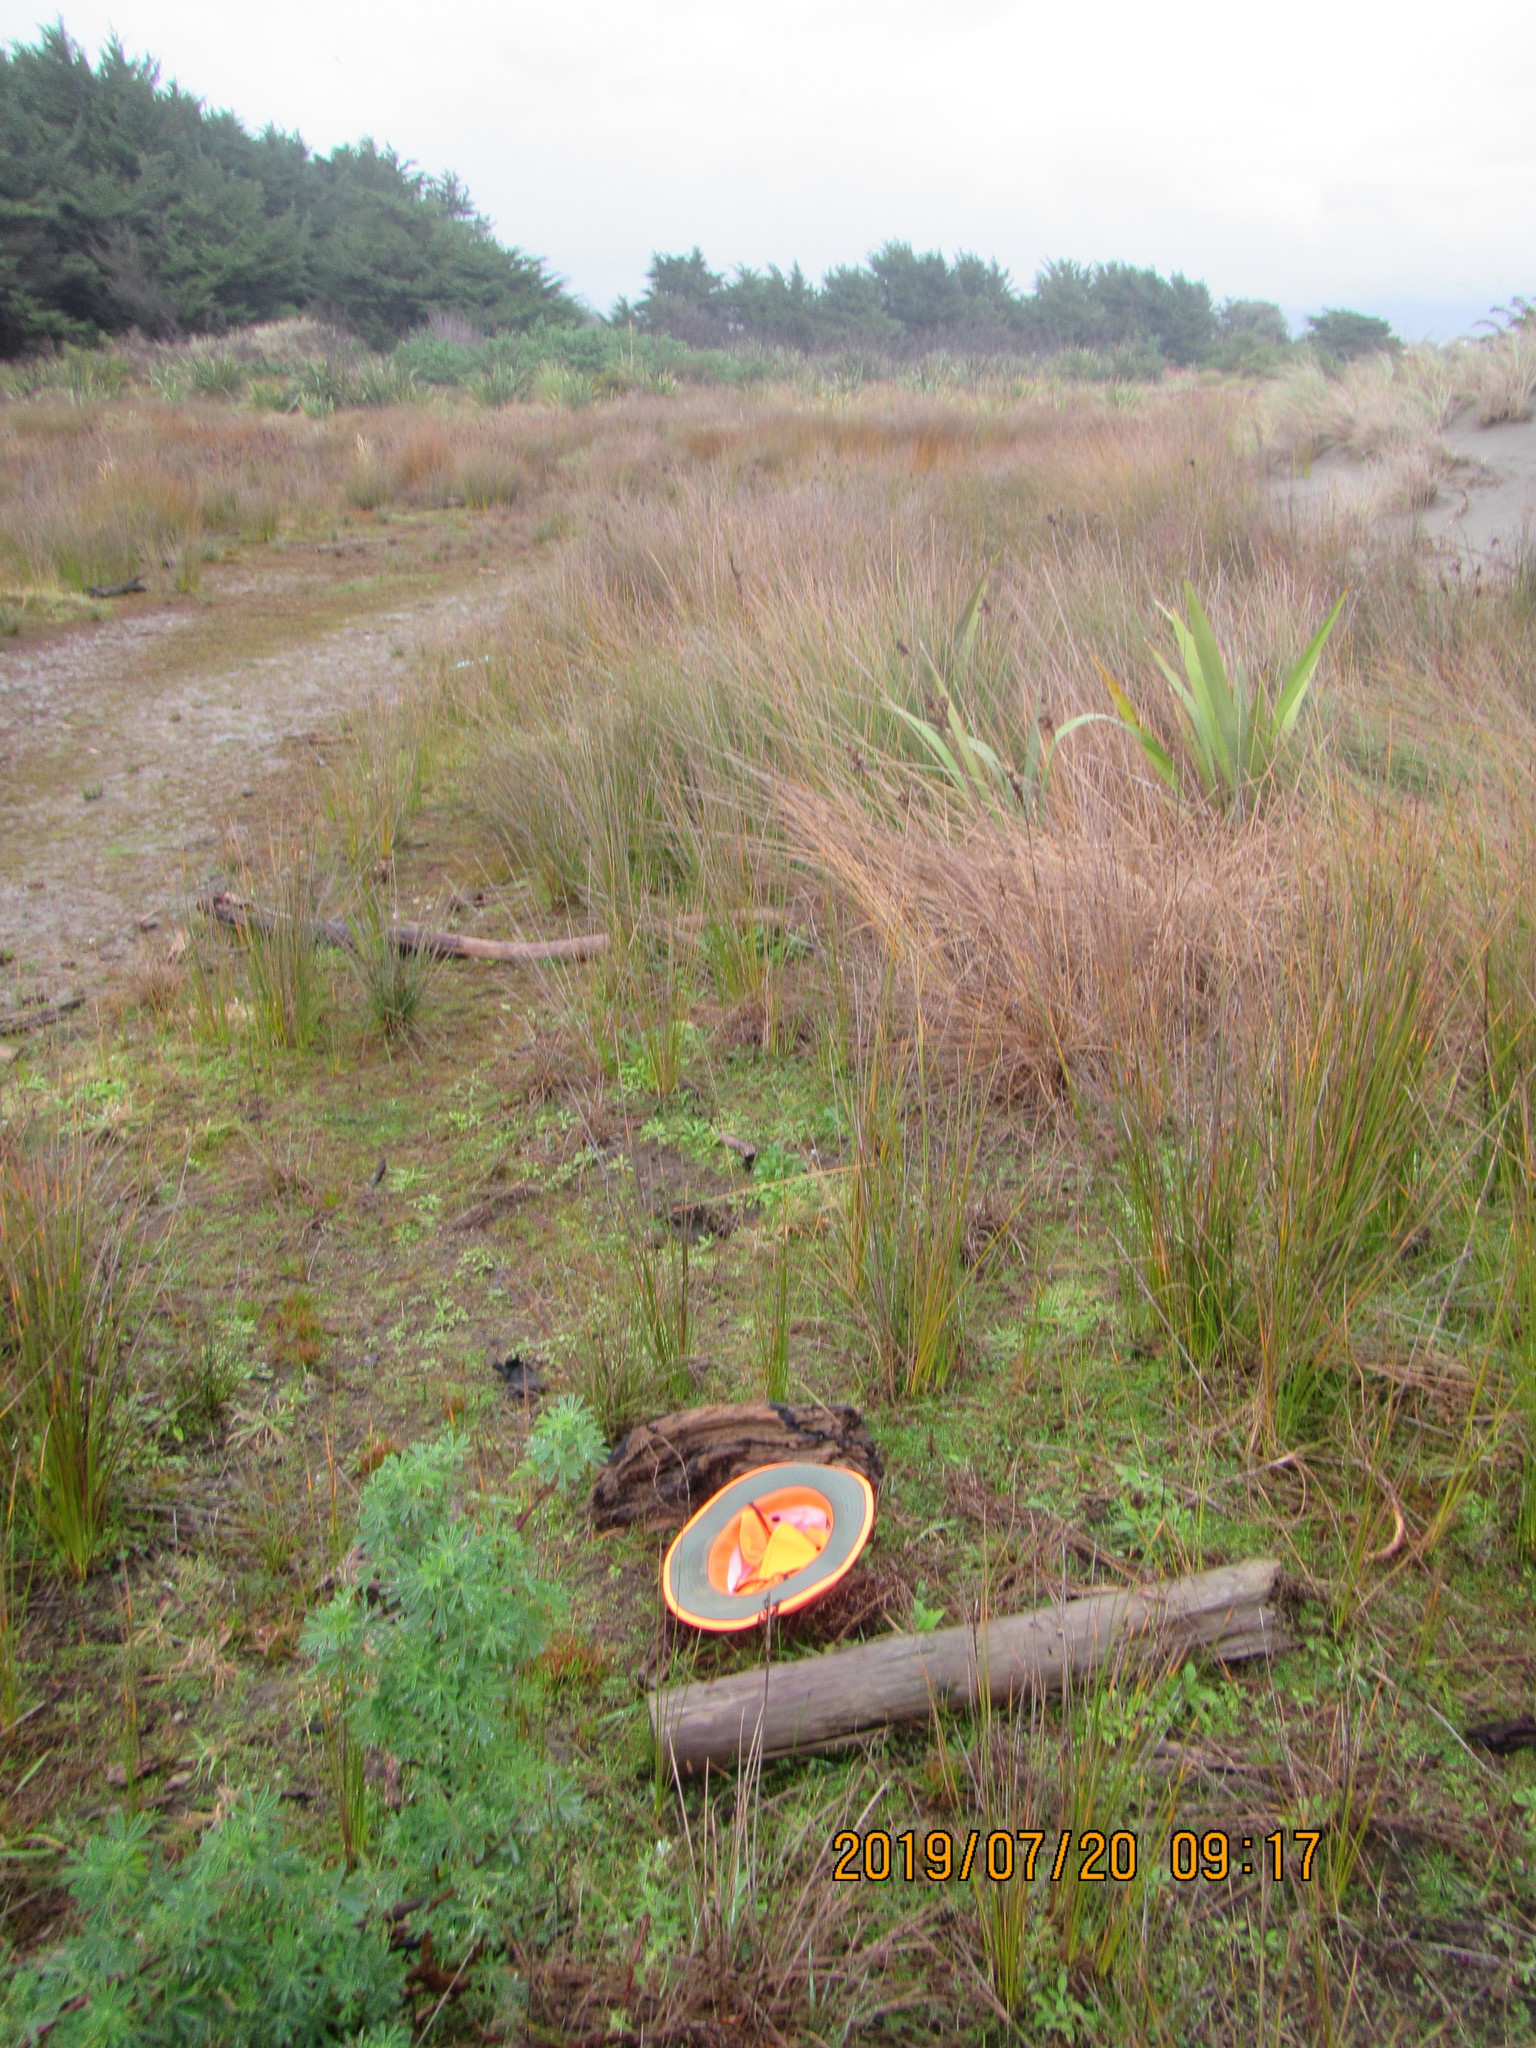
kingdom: Animalia
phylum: Arthropoda
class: Arachnida
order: Araneae
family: Theridiidae
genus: Steatoda
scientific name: Steatoda capensis
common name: Cobweb weaver
